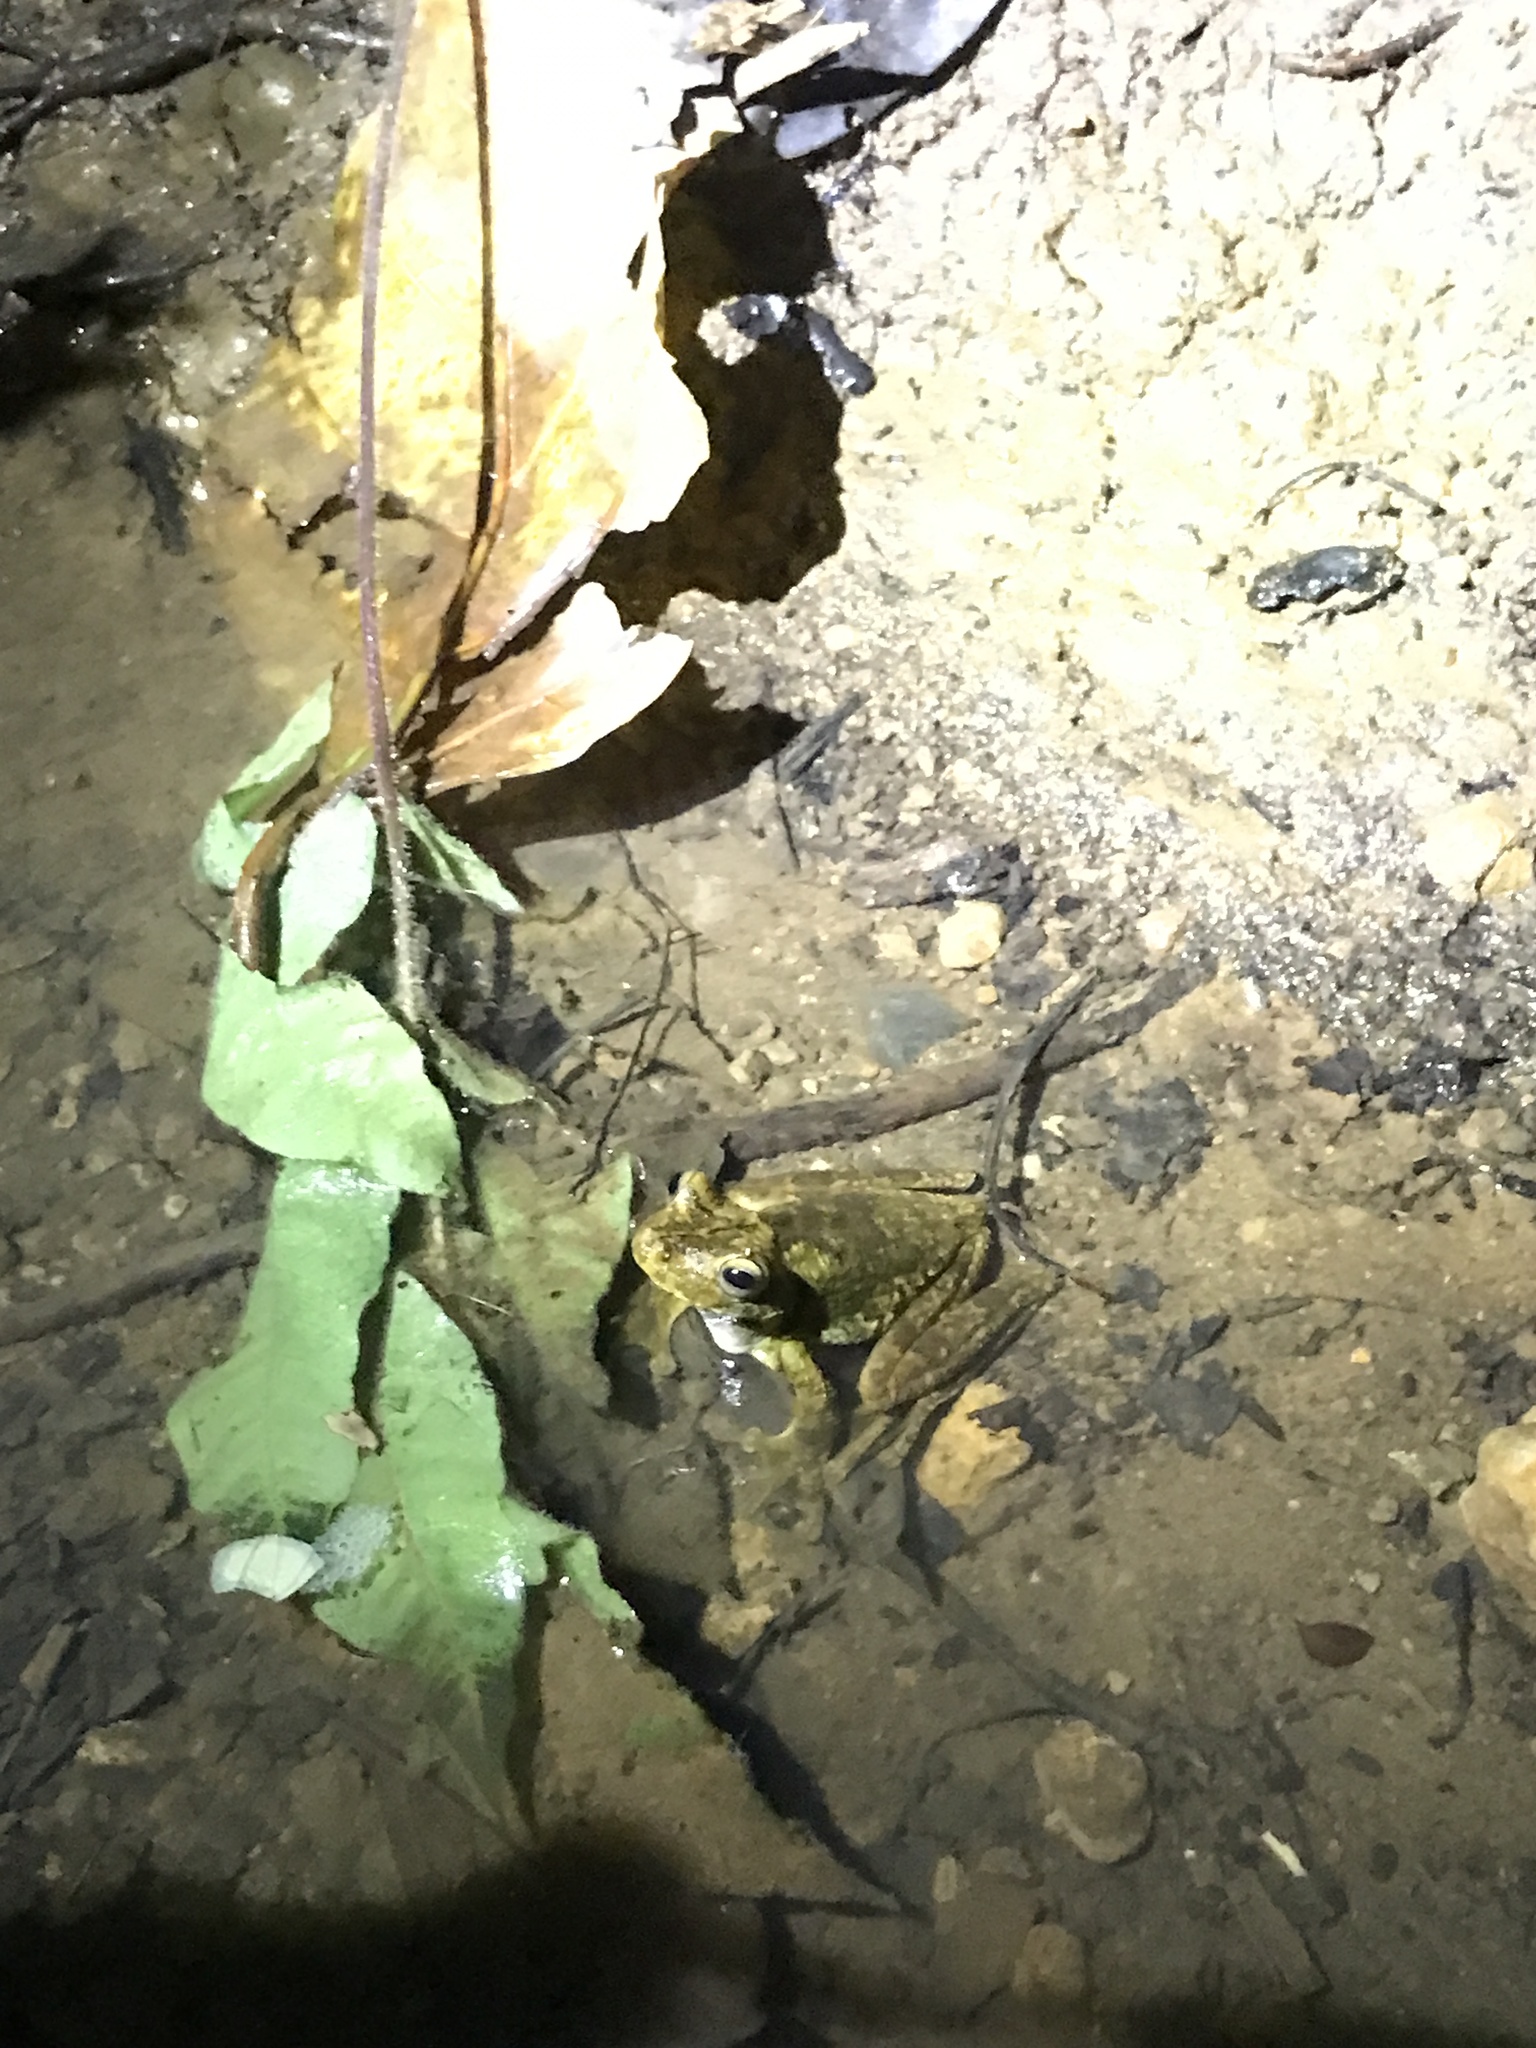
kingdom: Animalia
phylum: Chordata
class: Amphibia
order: Anura
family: Hylidae
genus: Boana
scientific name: Boana rosenbergi
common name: Rosenberg´s gladiator treefrog
